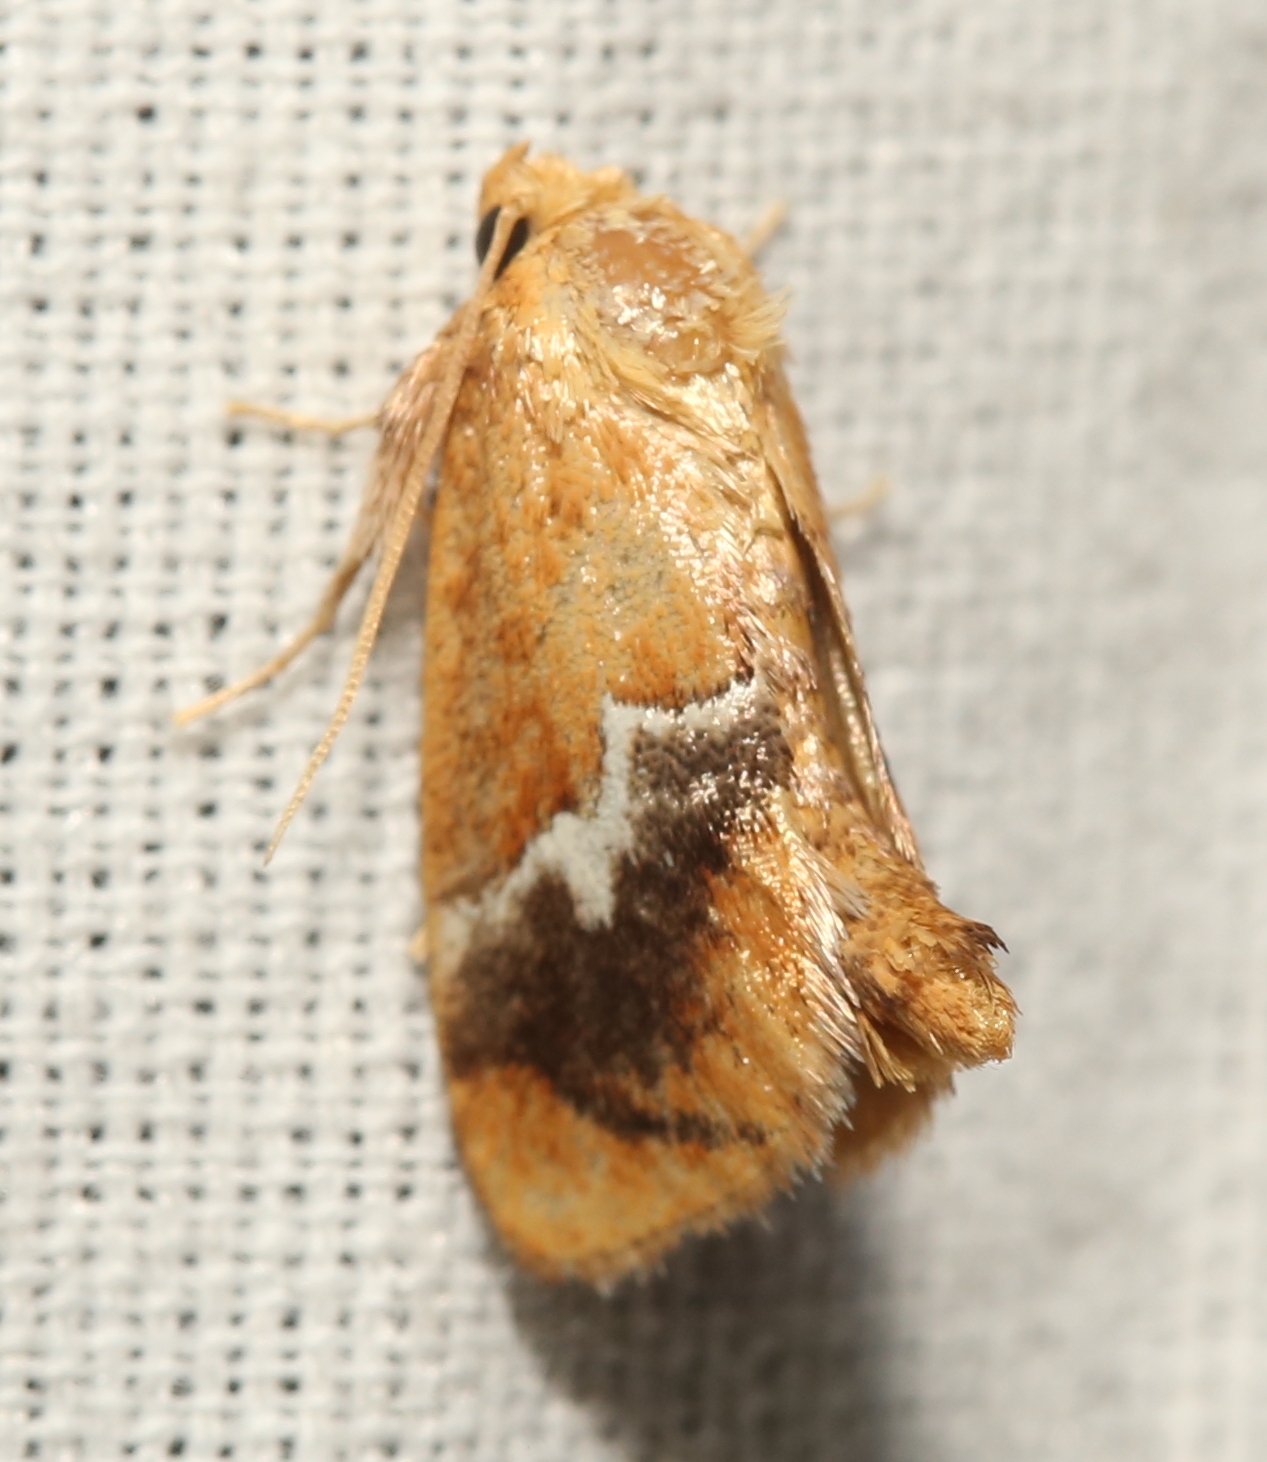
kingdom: Animalia
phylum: Arthropoda
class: Insecta
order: Lepidoptera
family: Limacodidae
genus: Lithacodes
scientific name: Lithacodes fasciola
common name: Yellow-shouldered slug moth
